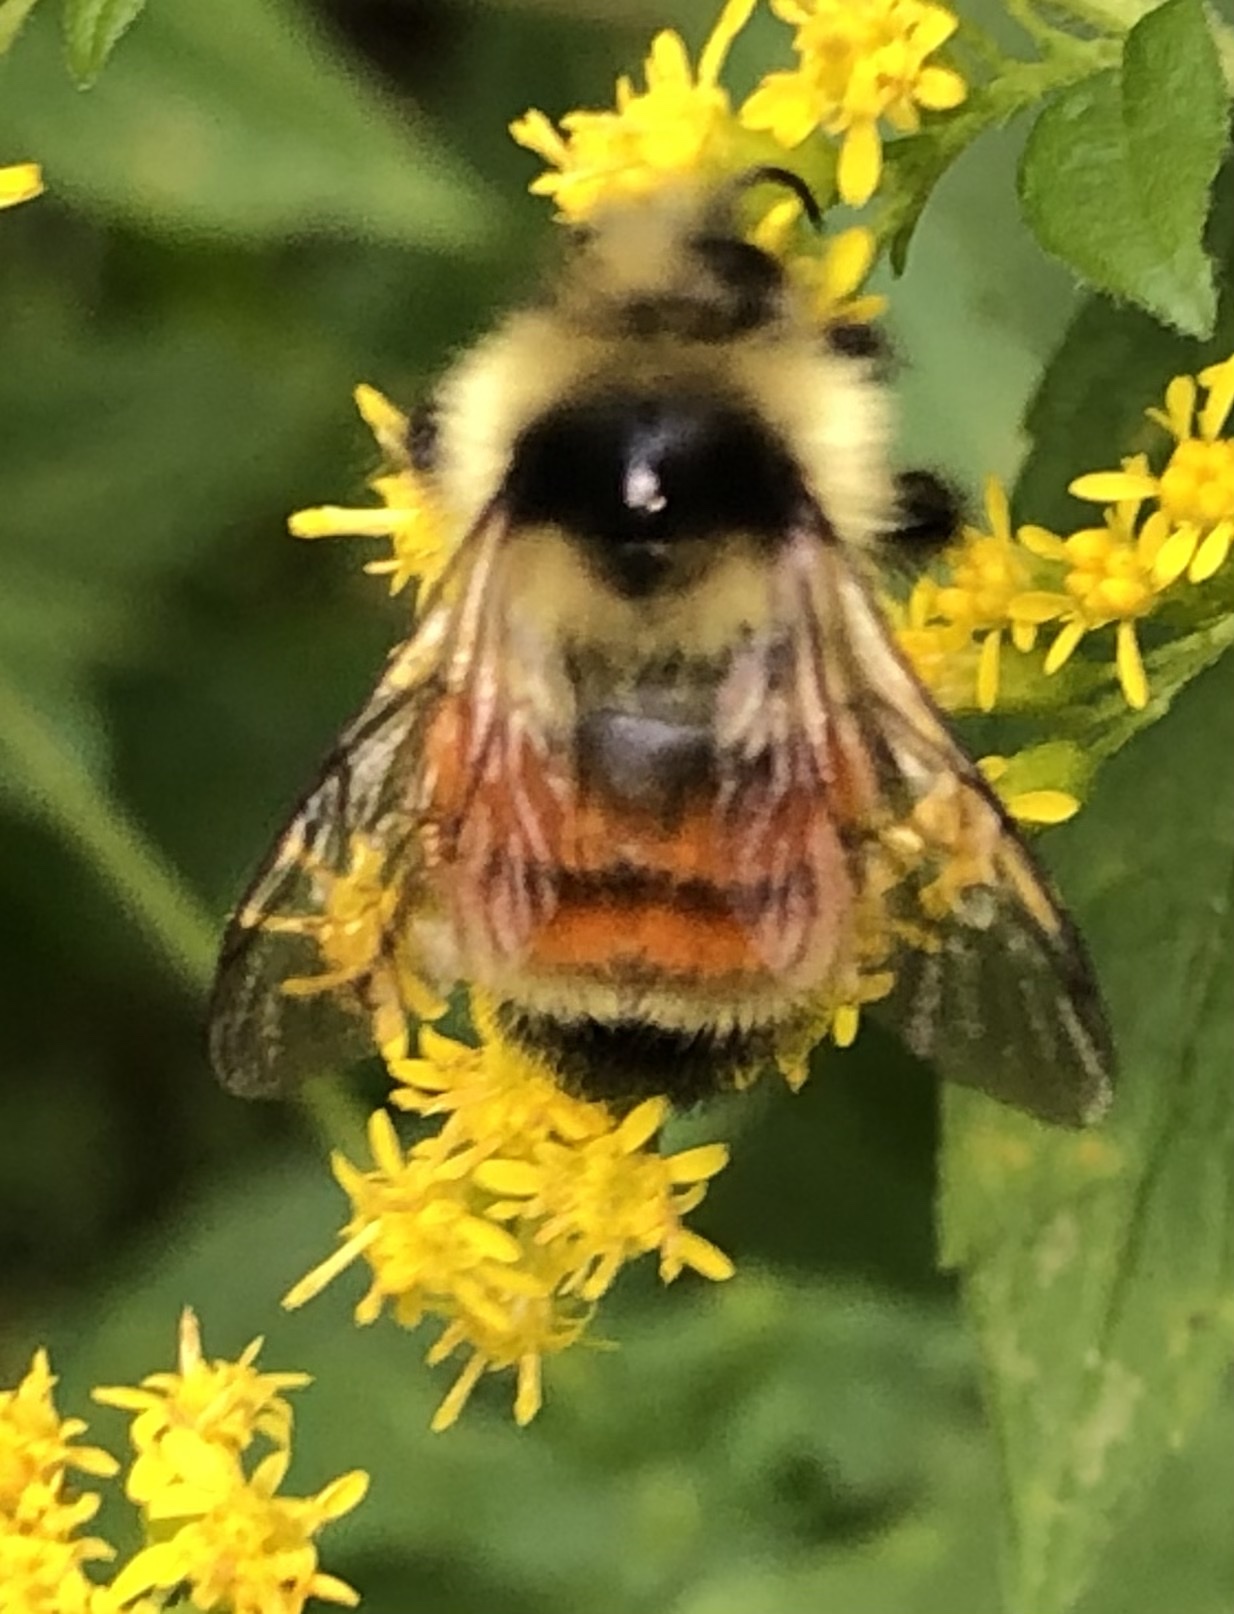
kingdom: Animalia
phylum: Arthropoda
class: Insecta
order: Hymenoptera
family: Apidae
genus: Bombus
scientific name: Bombus ternarius
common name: Tri-colored bumble bee
